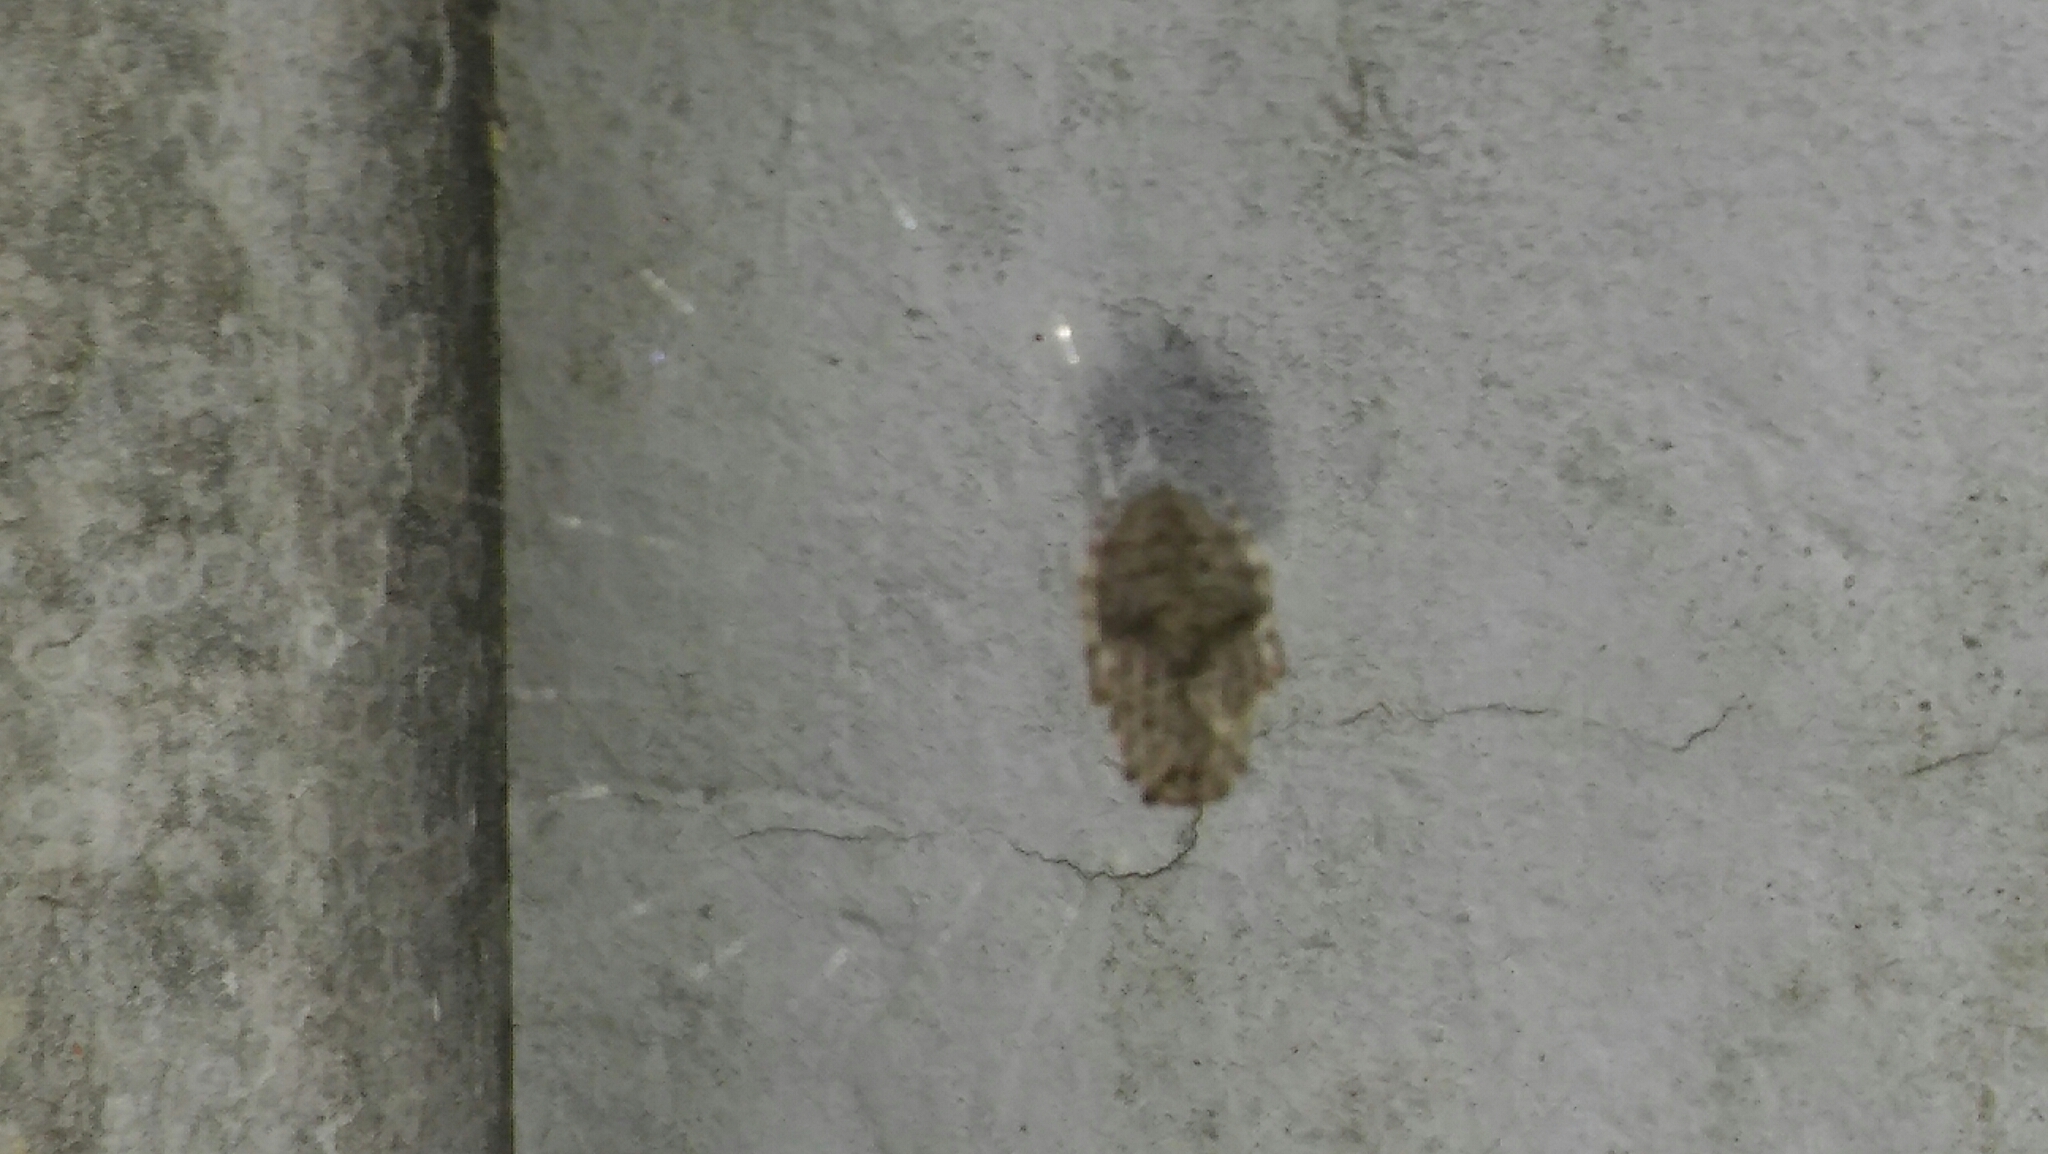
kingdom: Animalia
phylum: Arthropoda
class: Arachnida
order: Araneae
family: Araneidae
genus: Parawixia
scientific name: Parawixia audax
